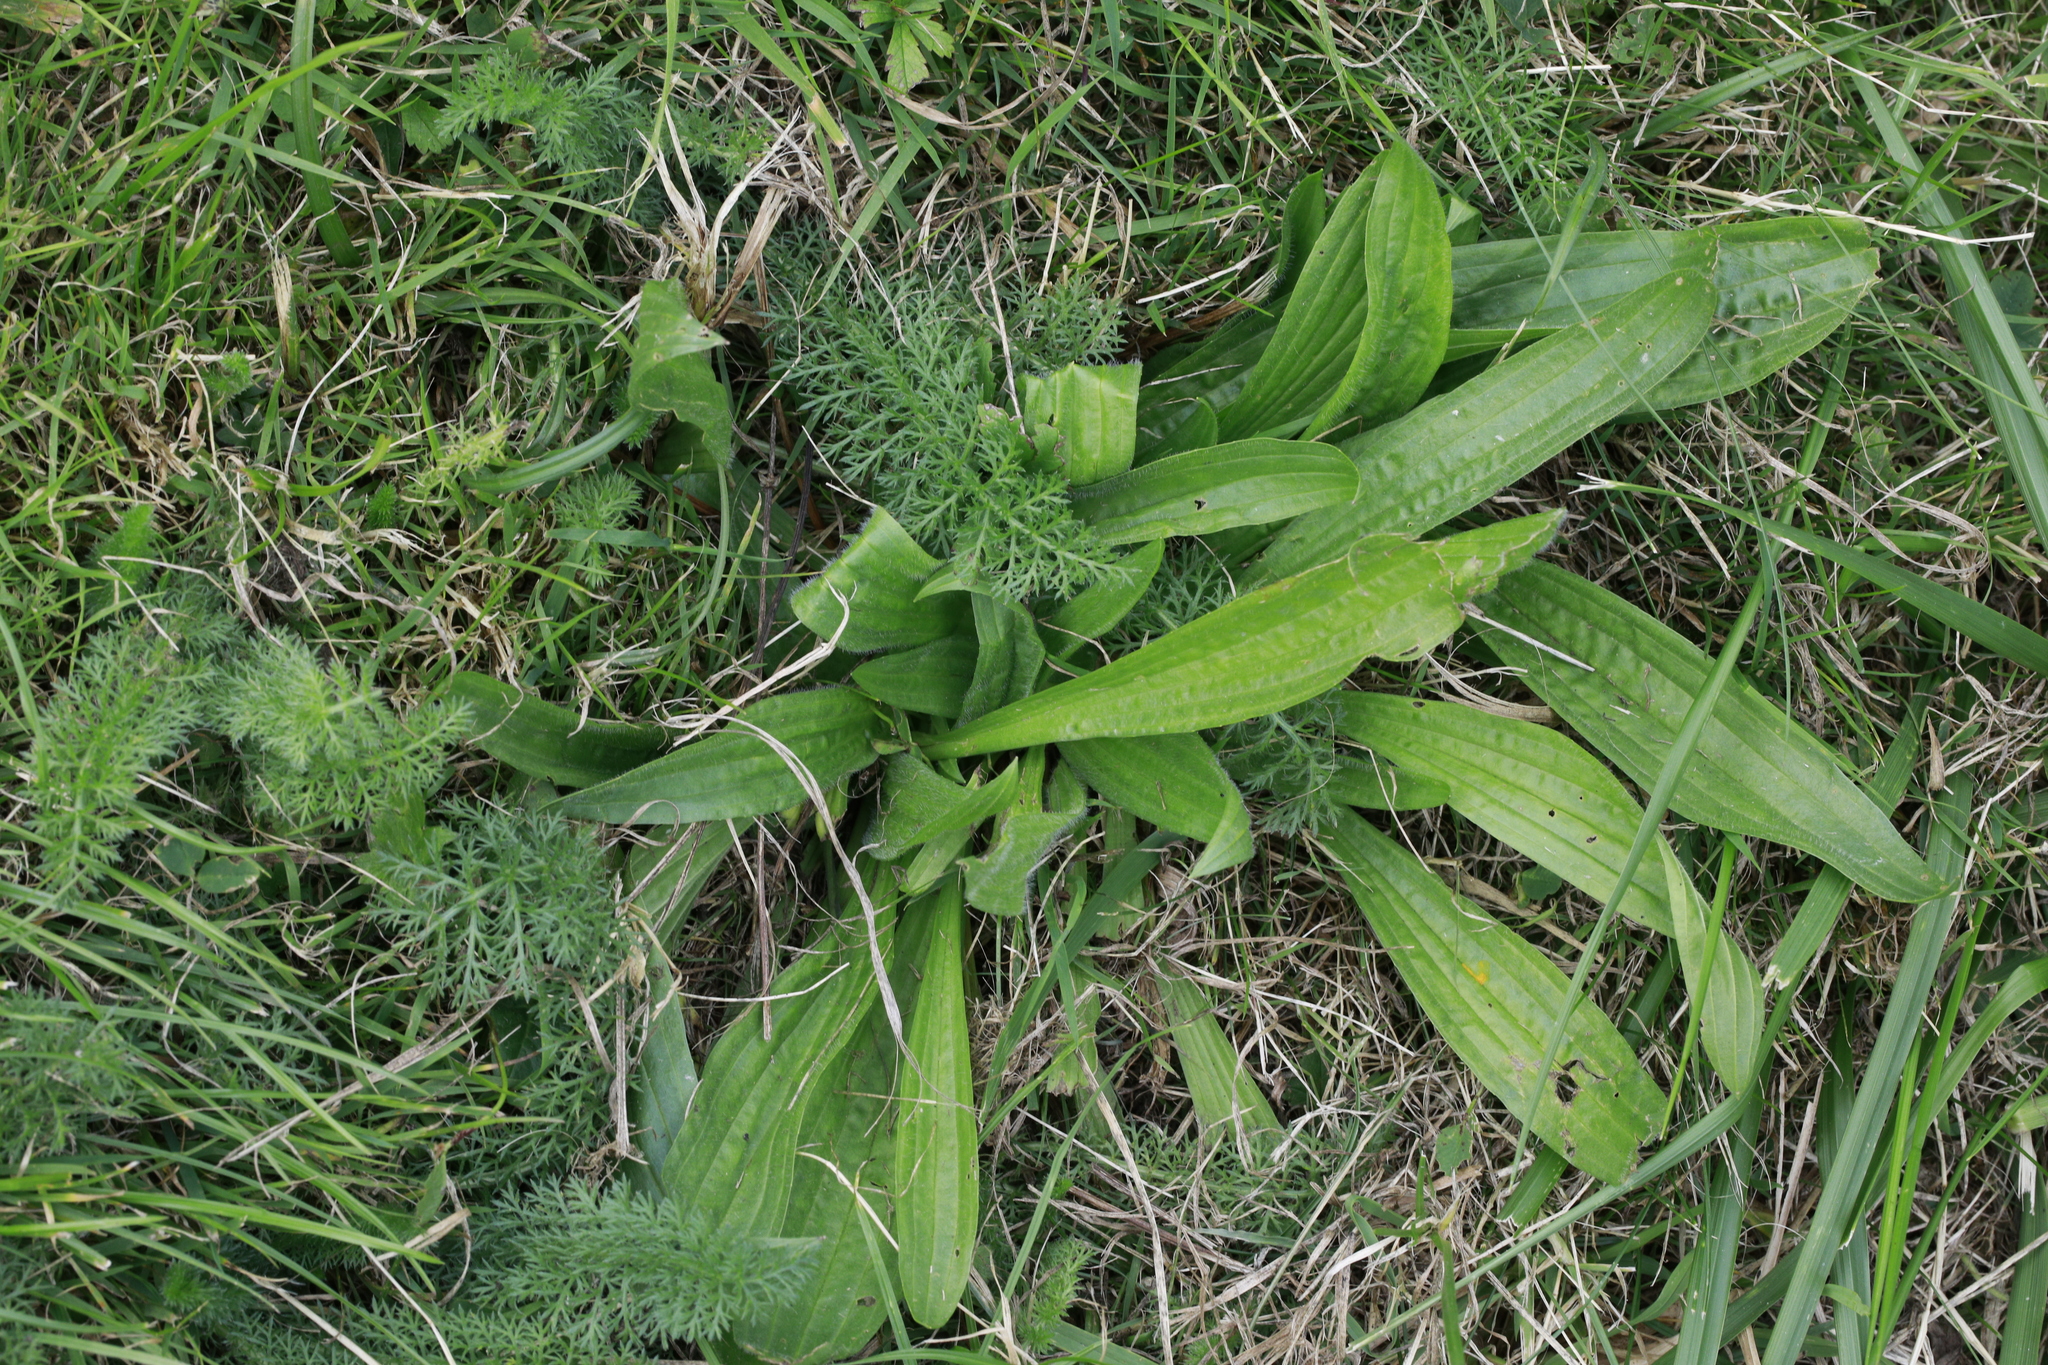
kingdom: Plantae
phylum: Tracheophyta
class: Magnoliopsida
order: Lamiales
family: Plantaginaceae
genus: Plantago
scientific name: Plantago lanceolata
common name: Ribwort plantain
